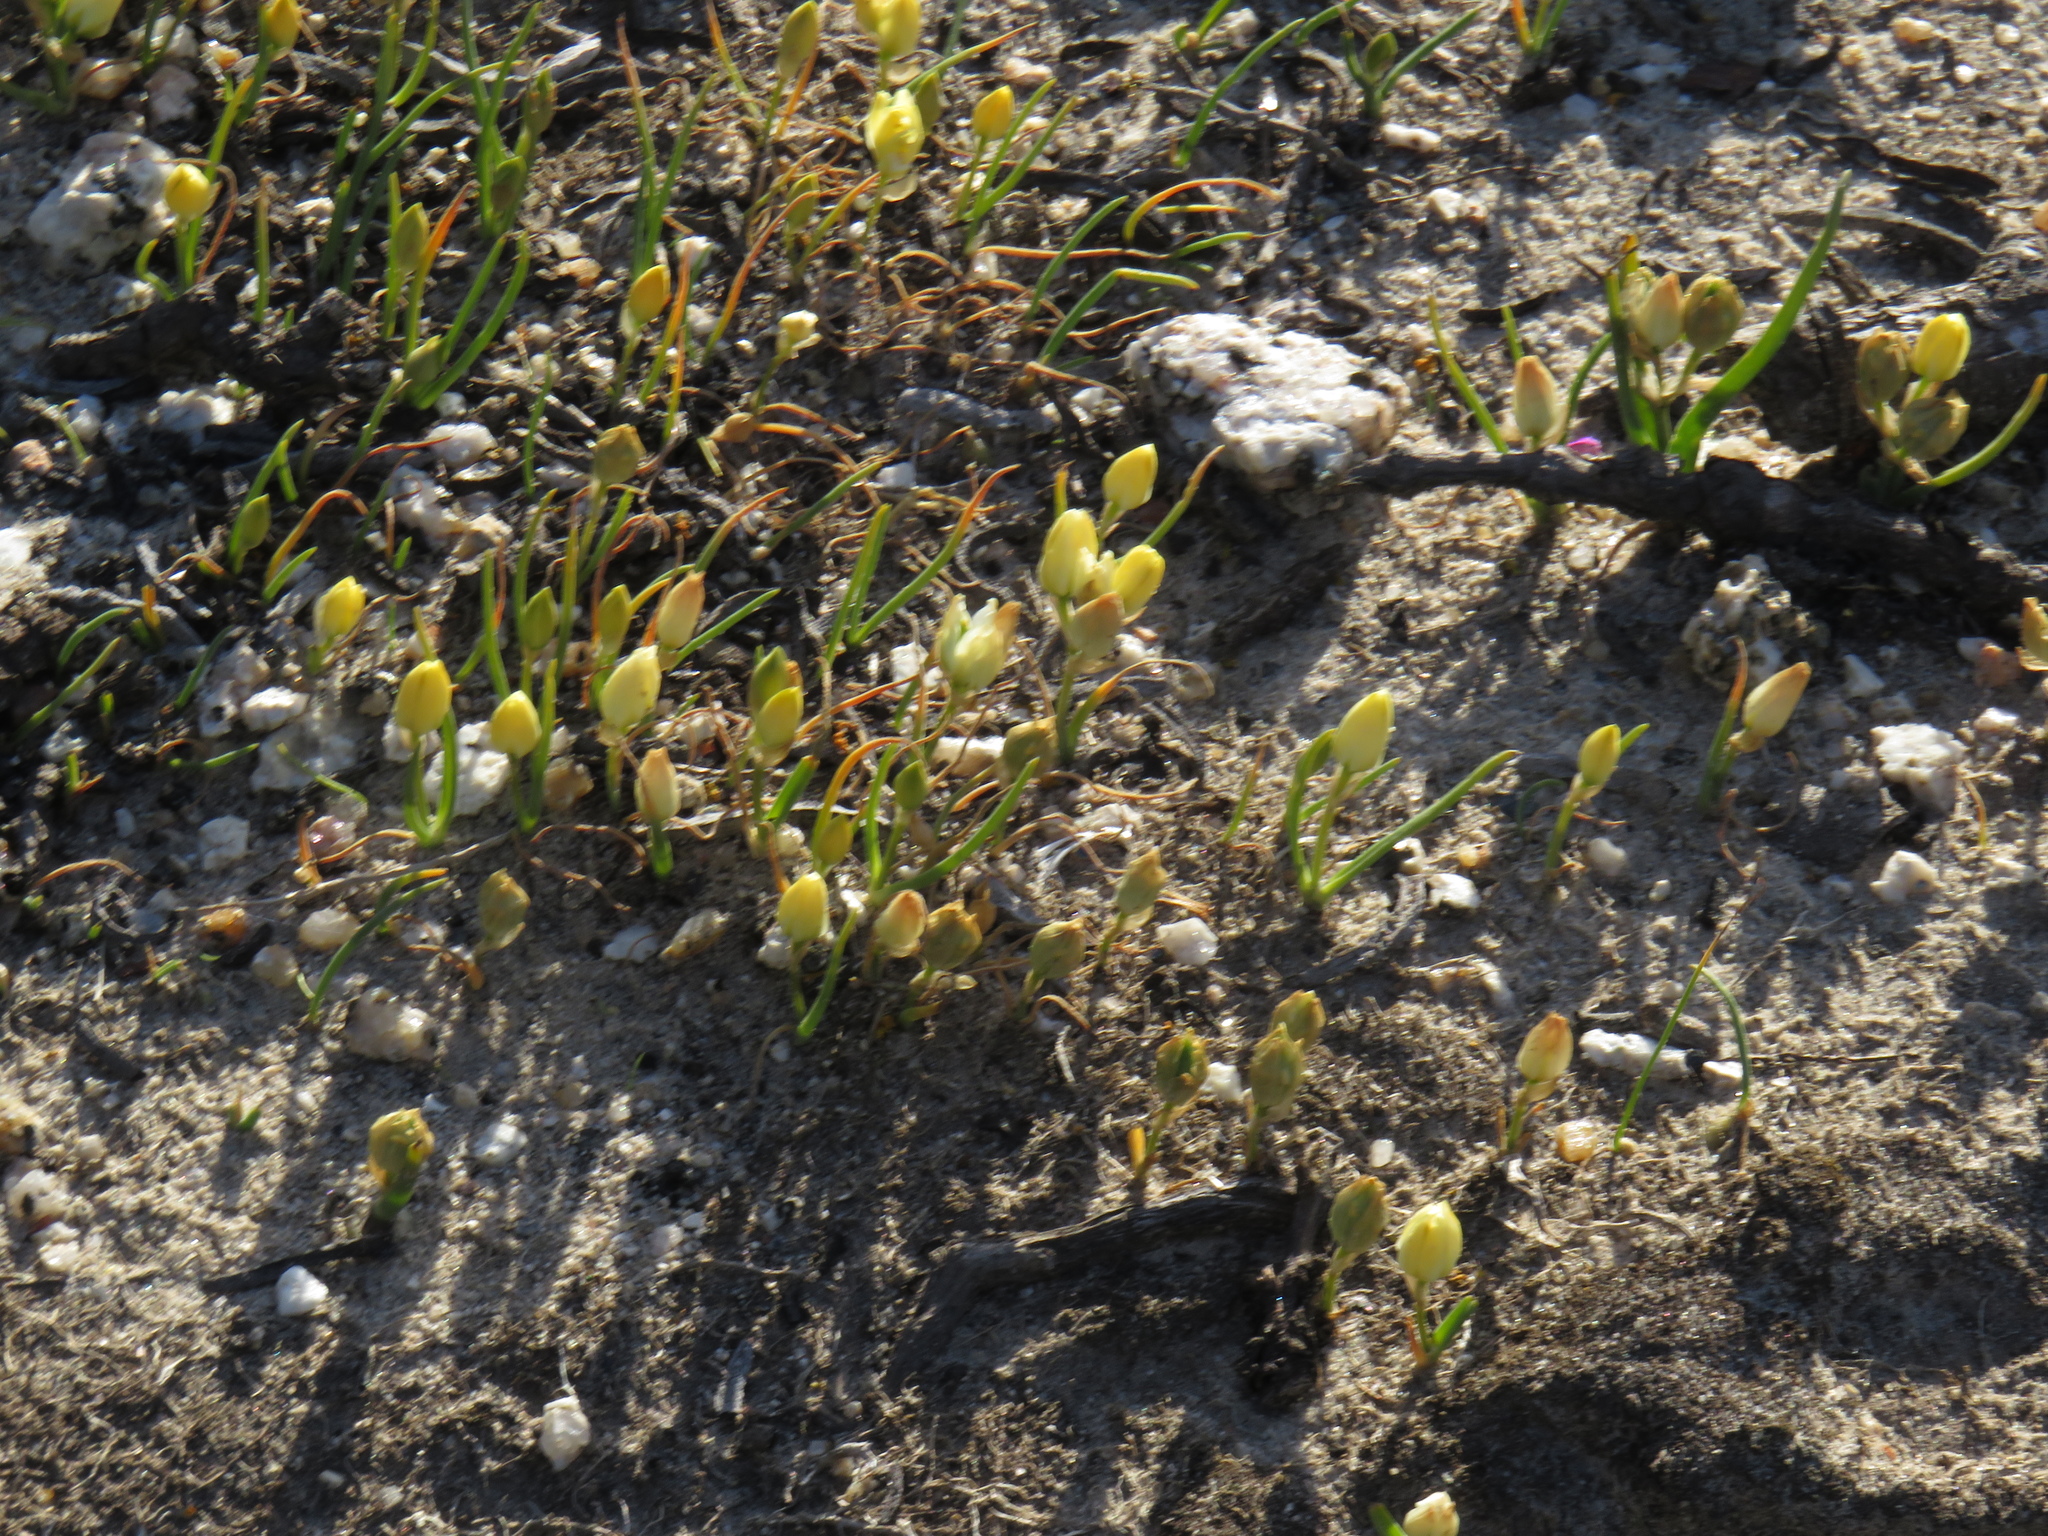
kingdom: Plantae
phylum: Tracheophyta
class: Liliopsida
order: Asparagales
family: Asparagaceae
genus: Ornithogalum
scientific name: Ornithogalum rupestre
